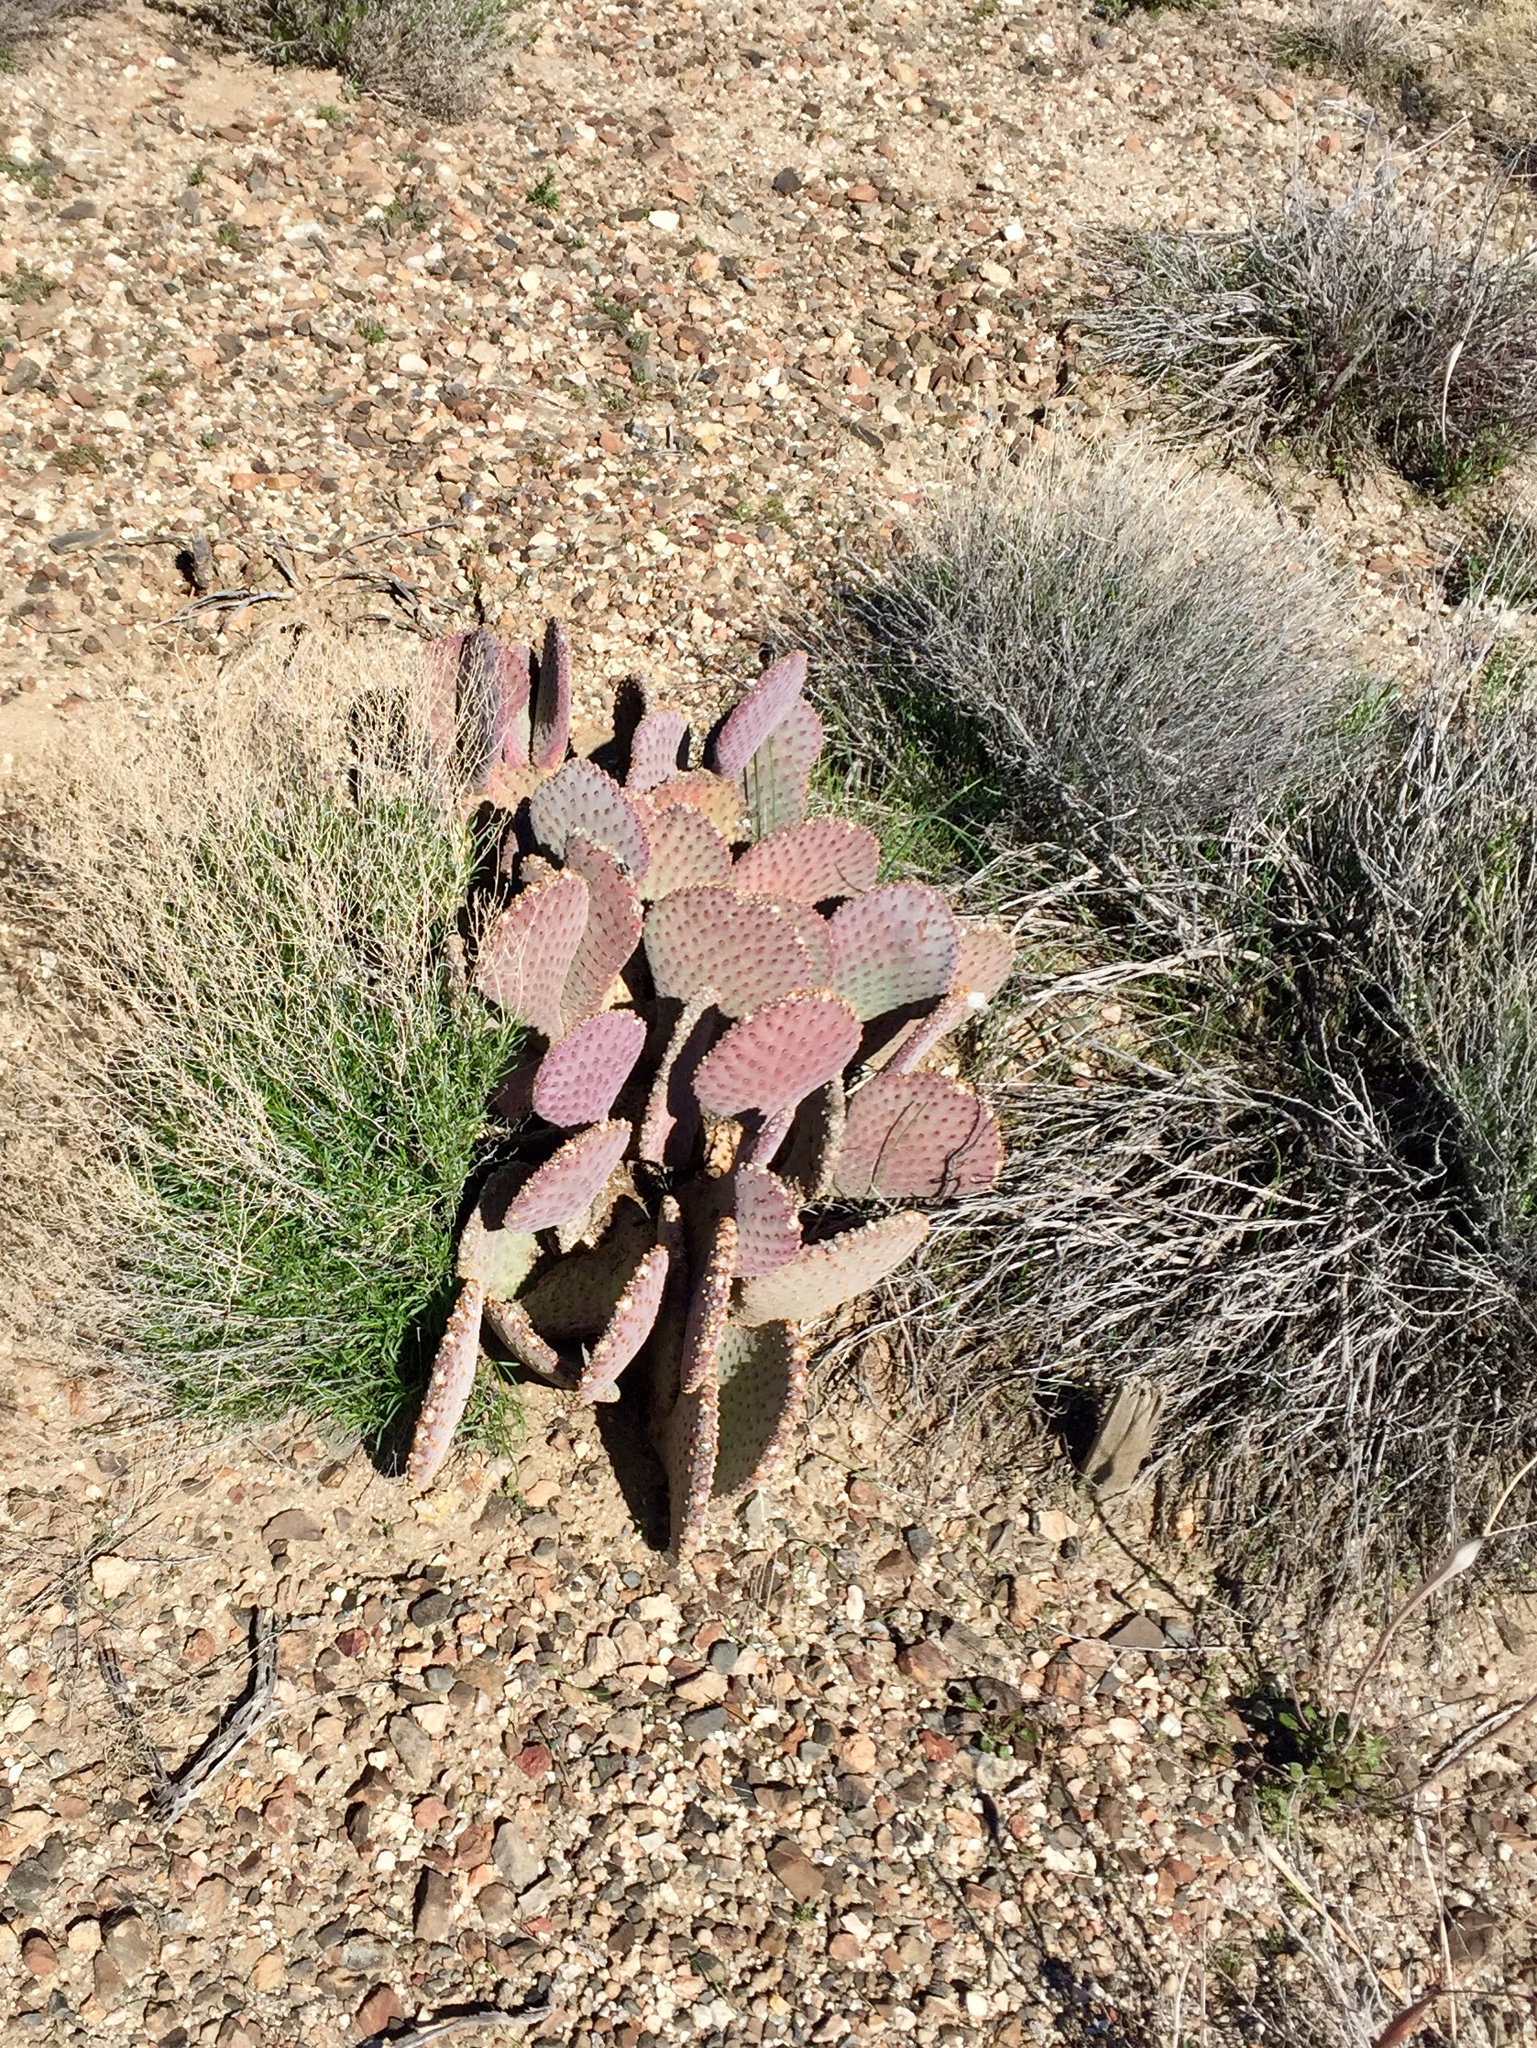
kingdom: Plantae
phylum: Tracheophyta
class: Magnoliopsida
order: Caryophyllales
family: Cactaceae
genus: Opuntia
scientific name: Opuntia basilaris
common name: Beavertail prickly-pear
